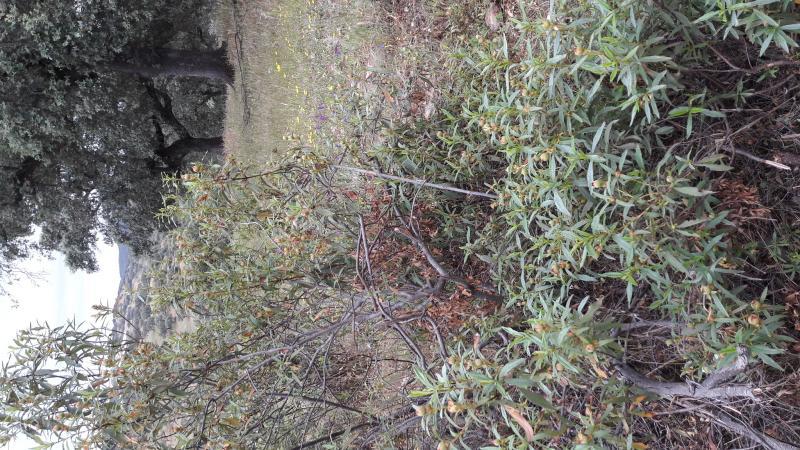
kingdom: Plantae
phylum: Tracheophyta
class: Magnoliopsida
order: Malvales
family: Cistaceae
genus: Cistus
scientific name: Cistus ladanifer
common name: Common gum cistus
